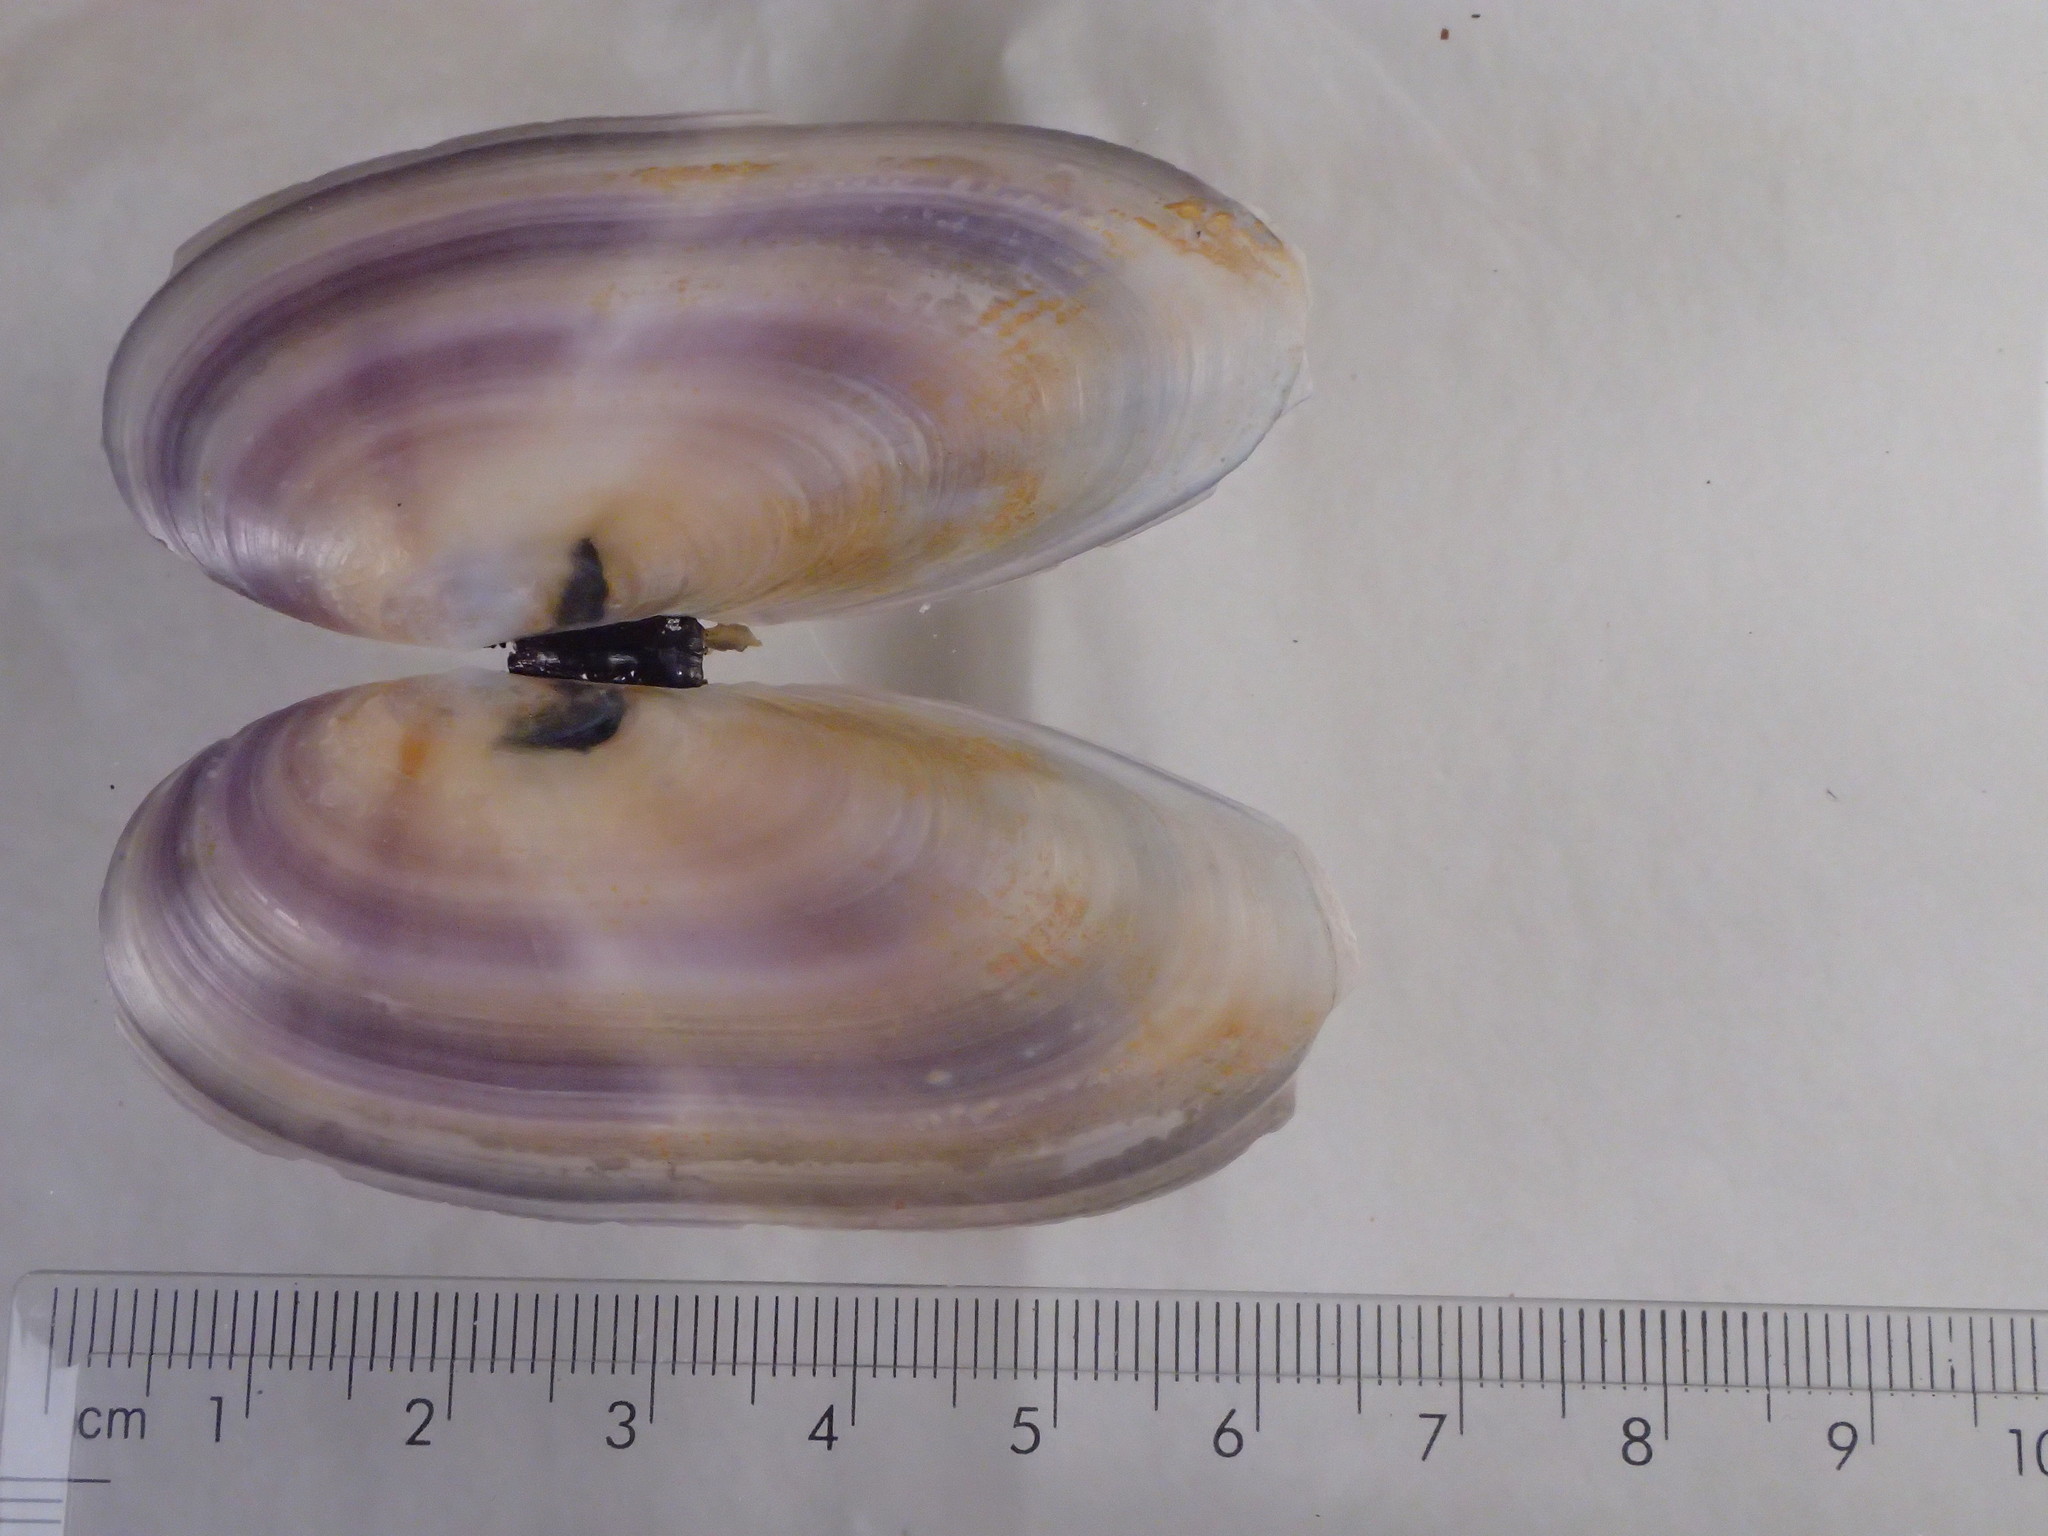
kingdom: Animalia
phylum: Mollusca
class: Bivalvia
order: Adapedonta
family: Pharidae
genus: Siliqua
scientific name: Siliqua costata
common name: Atlantic razor
